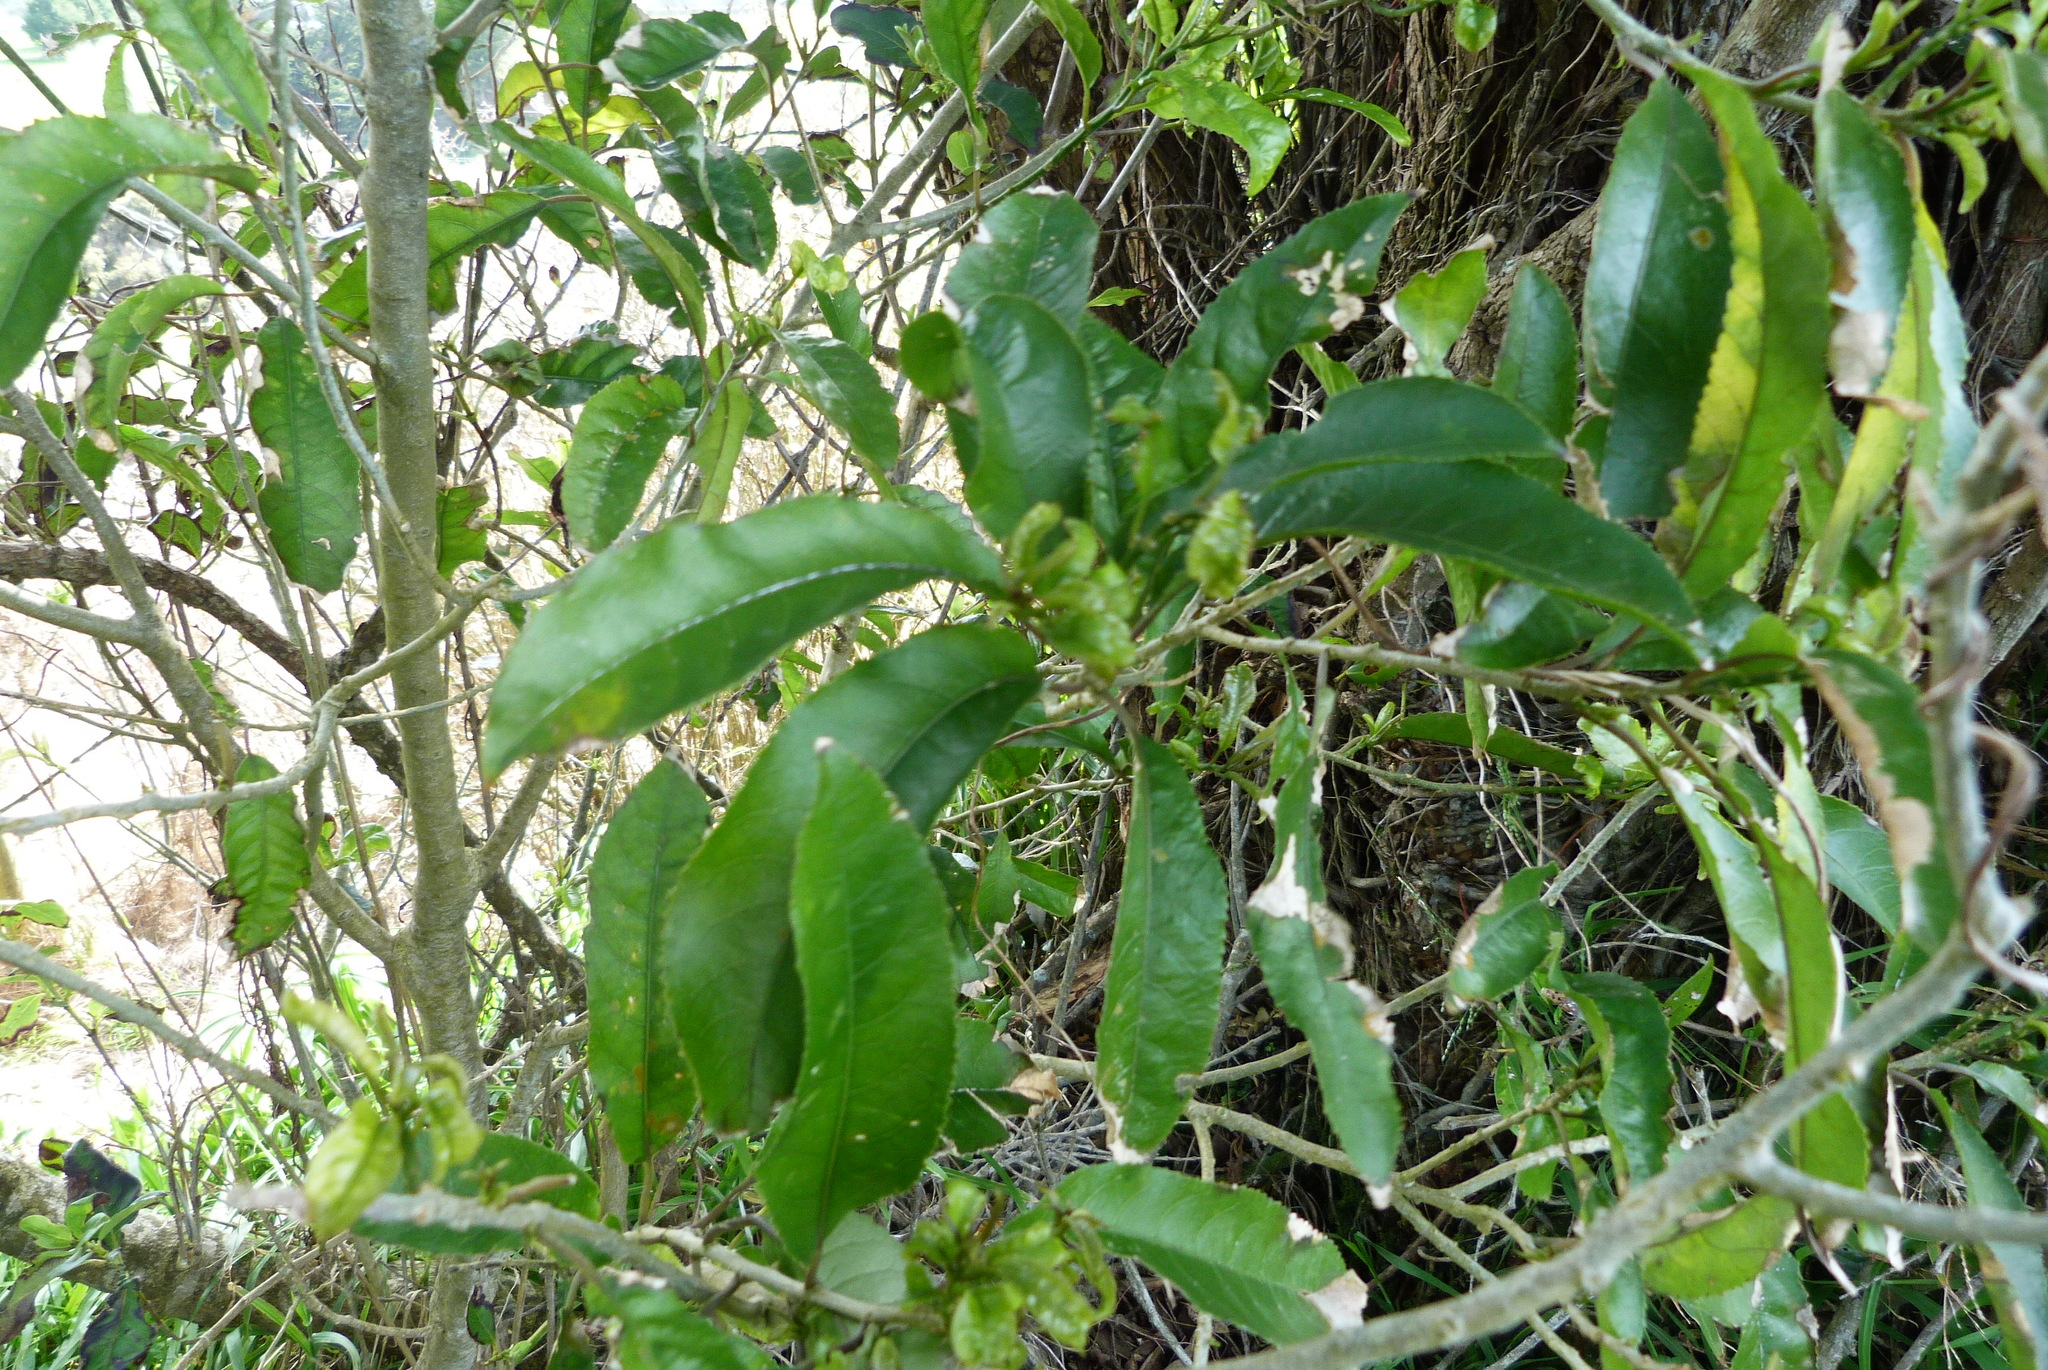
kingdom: Plantae
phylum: Tracheophyta
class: Magnoliopsida
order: Malpighiales
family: Violaceae
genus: Melicytus
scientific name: Melicytus ramiflorus
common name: Mahoe
